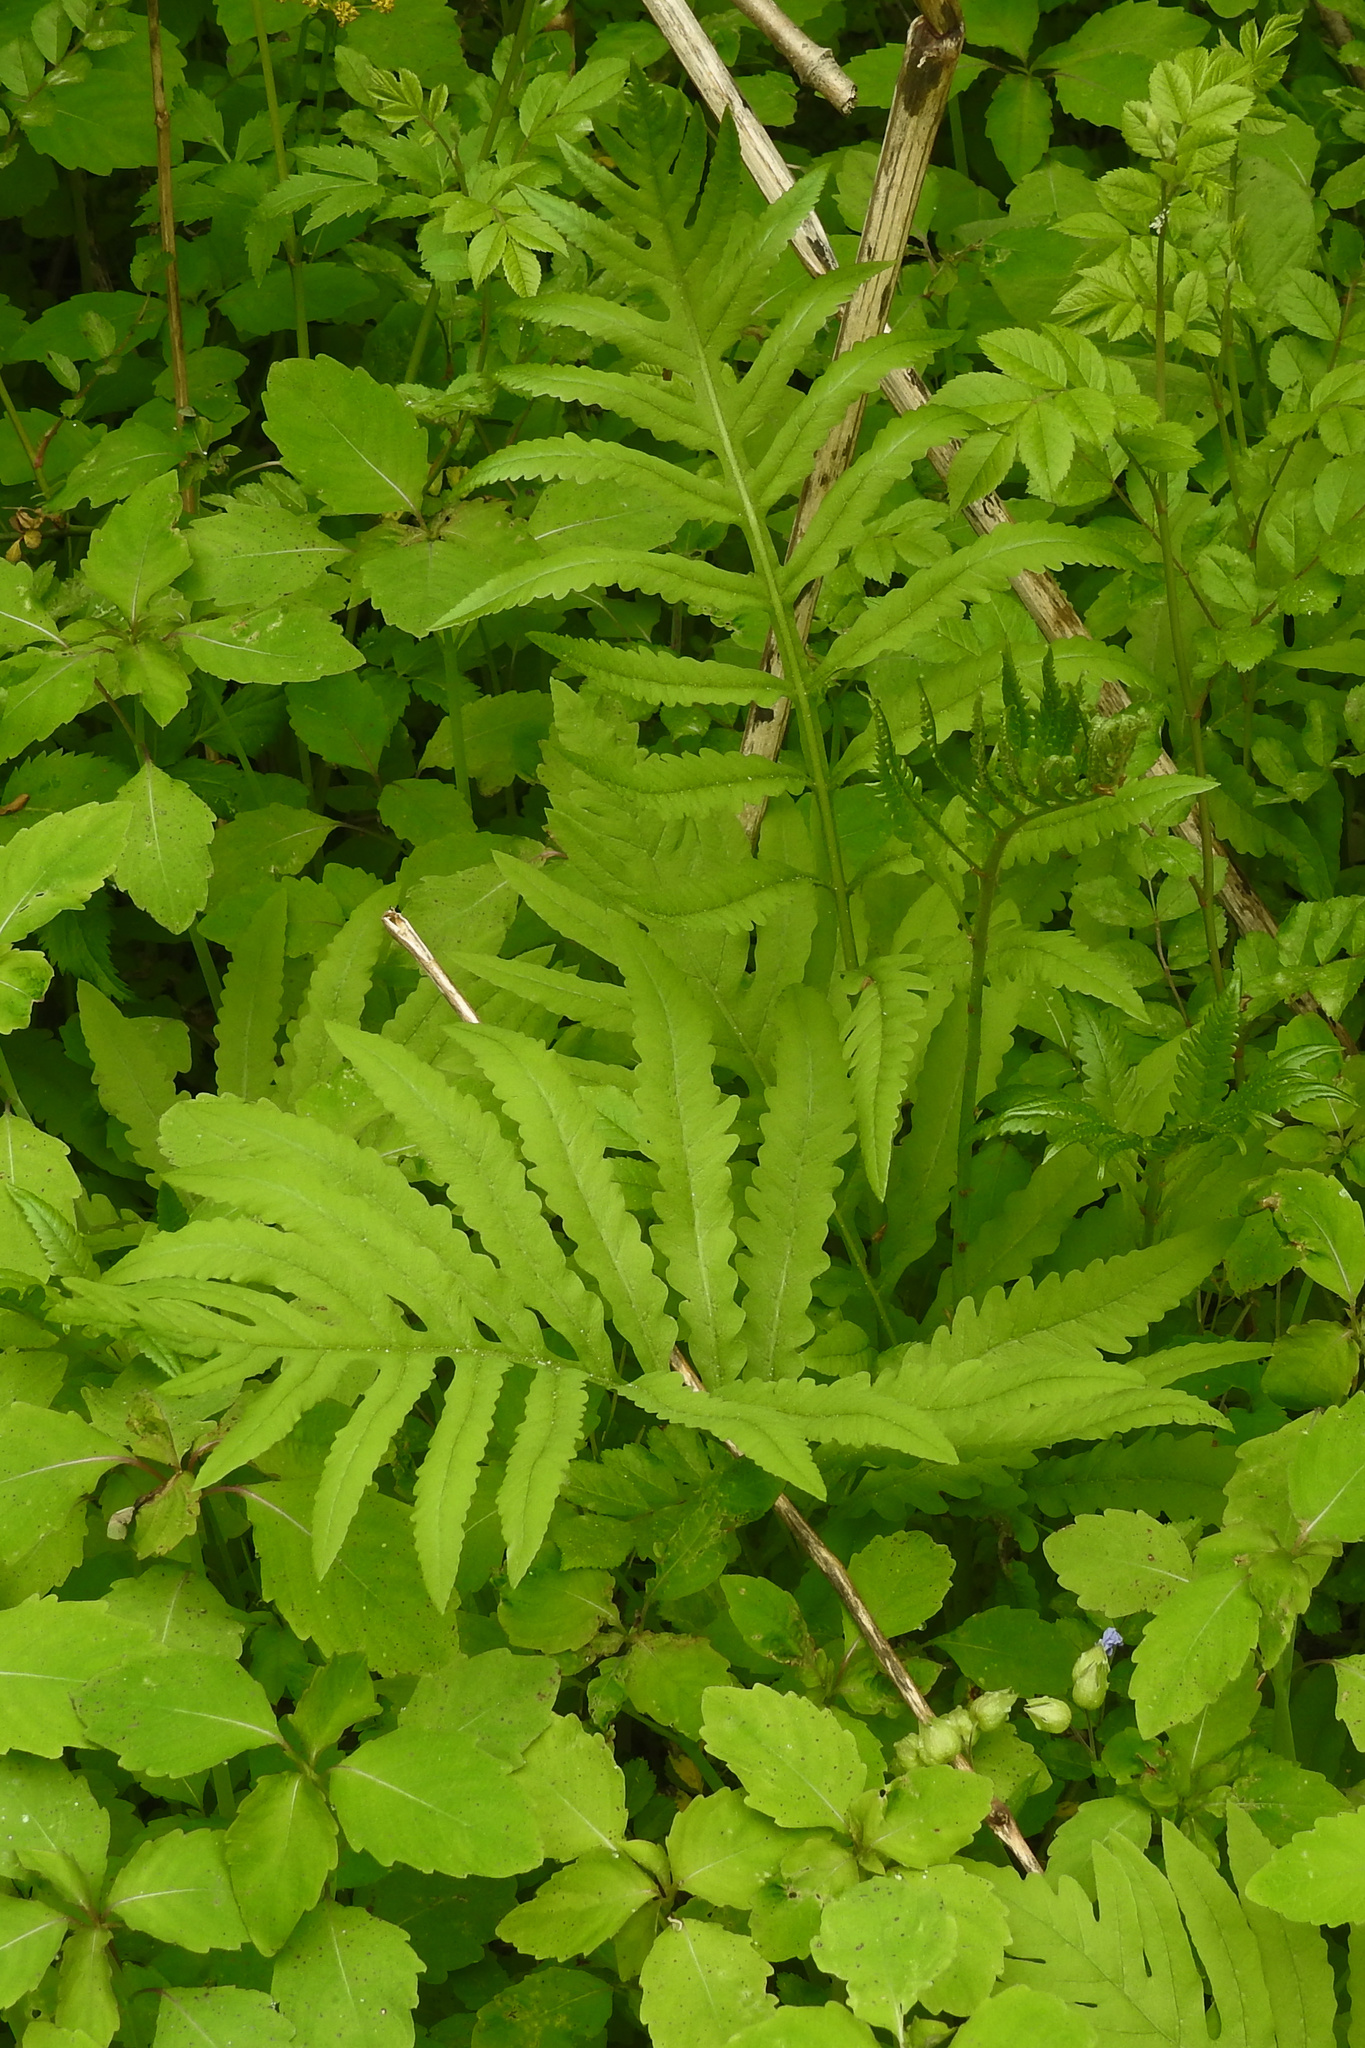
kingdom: Plantae
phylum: Tracheophyta
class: Polypodiopsida
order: Polypodiales
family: Onocleaceae
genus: Onoclea
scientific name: Onoclea sensibilis
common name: Sensitive fern
